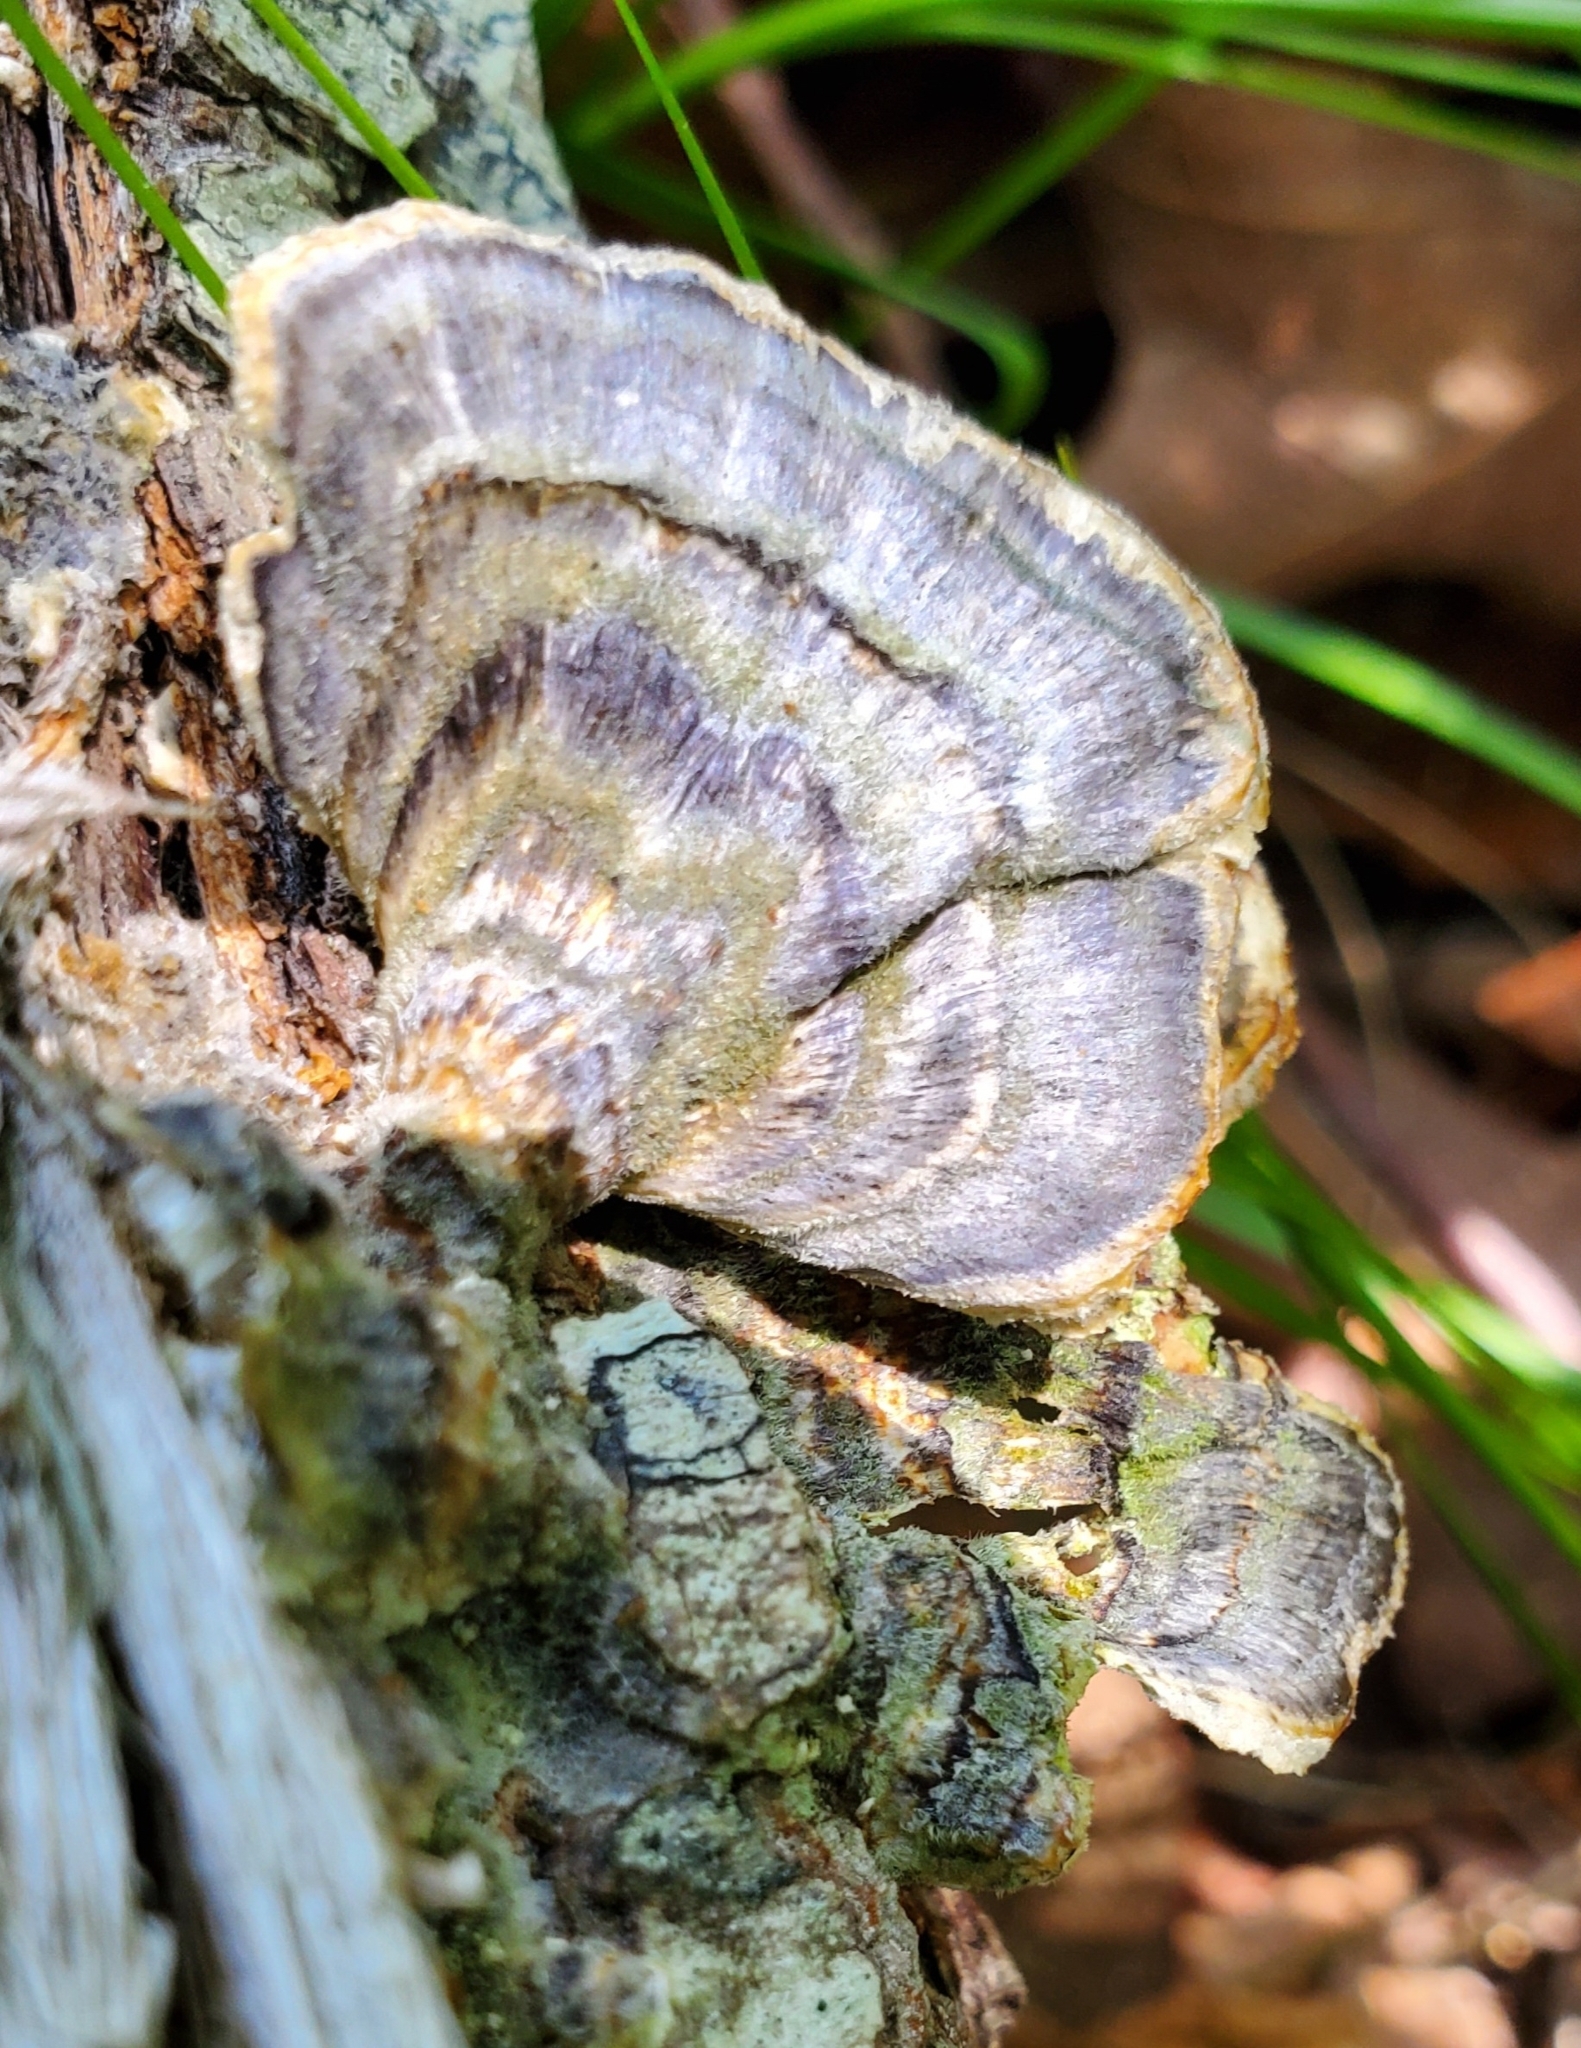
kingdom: Fungi
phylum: Basidiomycota
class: Agaricomycetes
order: Polyporales
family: Polyporaceae
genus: Trametes
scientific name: Trametes versicolor
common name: Turkeytail
